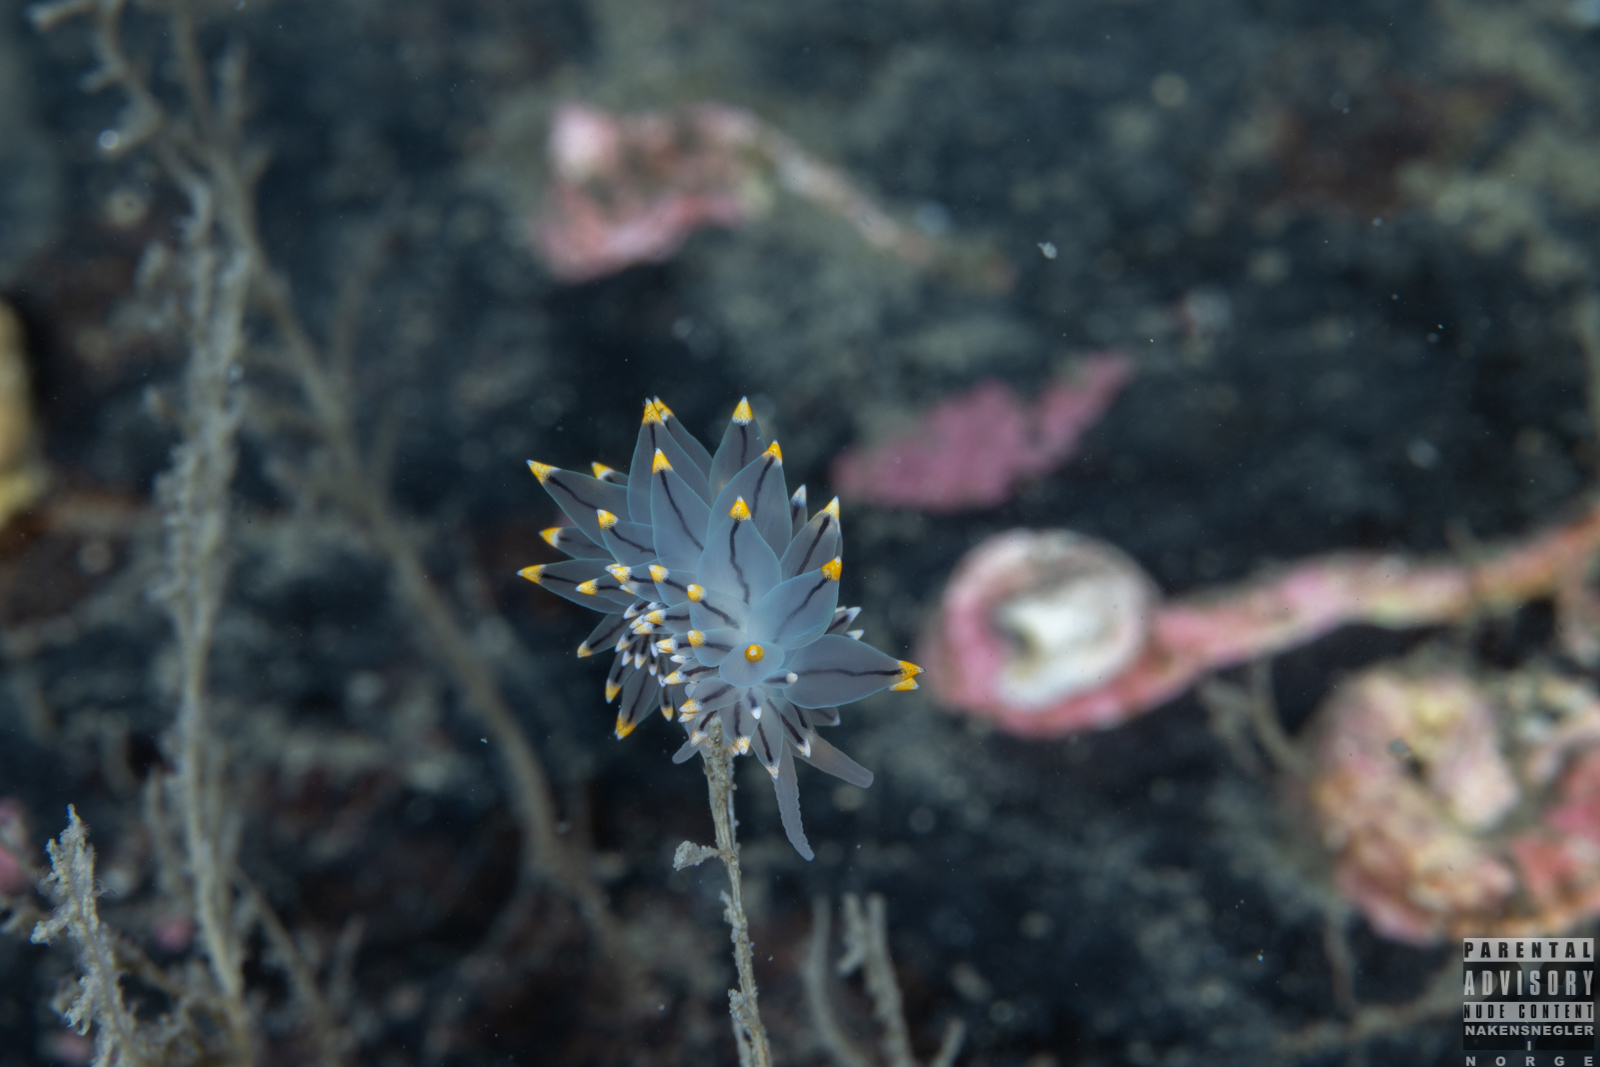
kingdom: Animalia
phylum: Mollusca
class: Gastropoda
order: Nudibranchia
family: Eubranchidae
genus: Eubranchus
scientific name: Eubranchus tricolor
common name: Painted balloon aeolis
